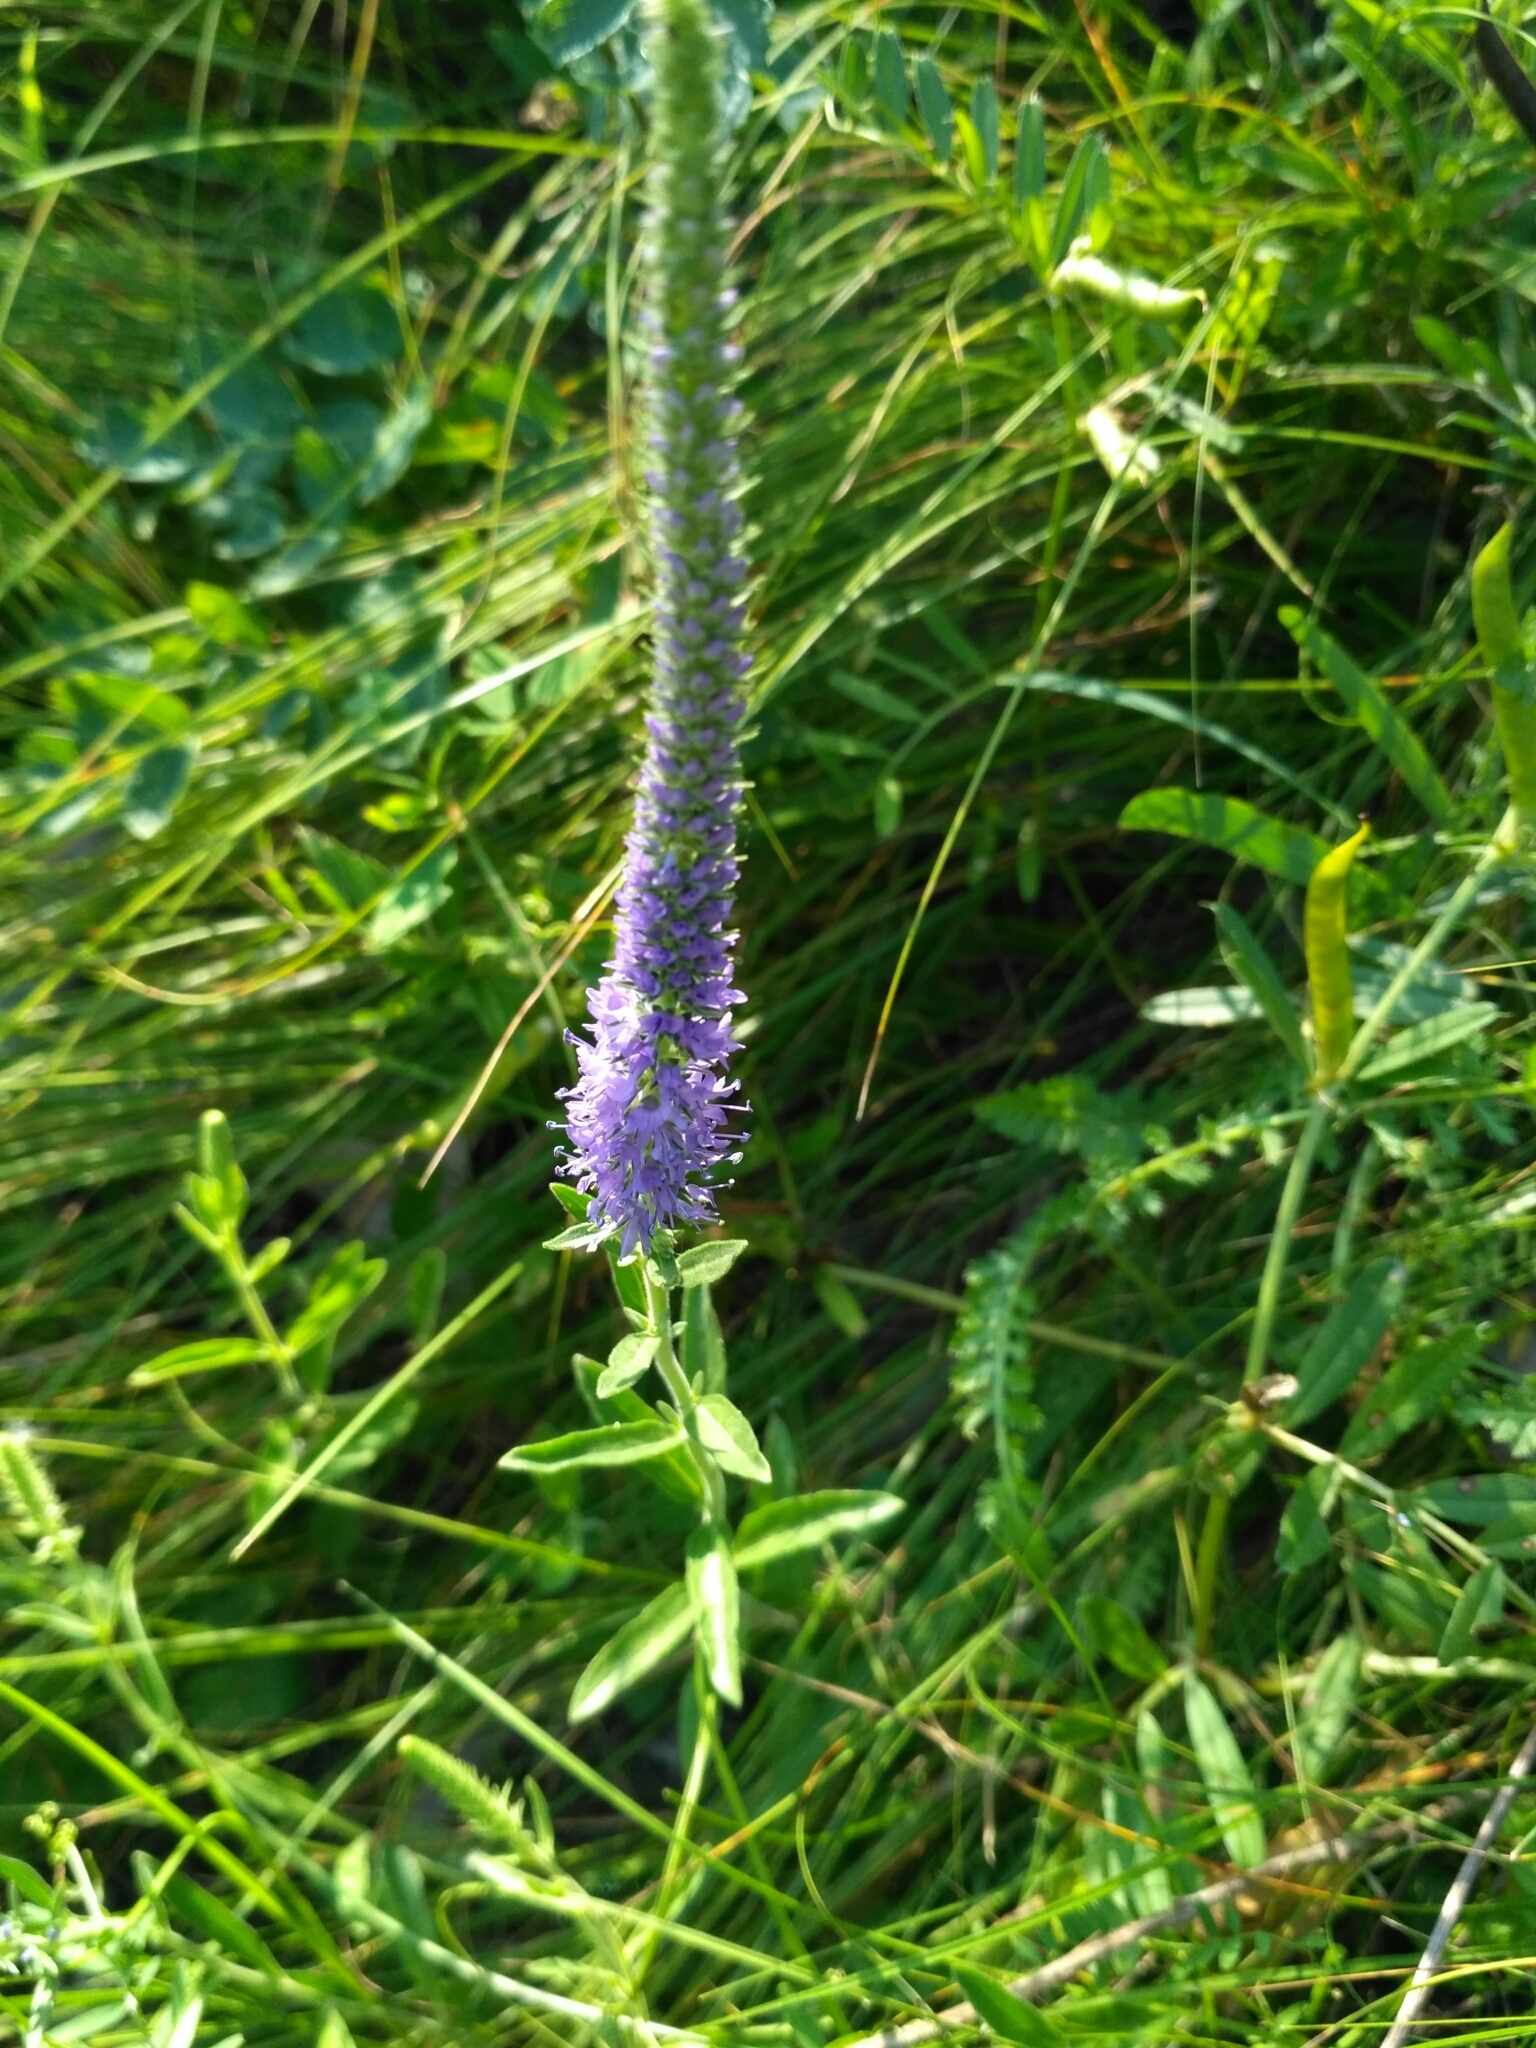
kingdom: Plantae
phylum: Tracheophyta
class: Magnoliopsida
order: Lamiales
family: Plantaginaceae
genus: Veronica
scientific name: Veronica spicata
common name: Spiked speedwell
